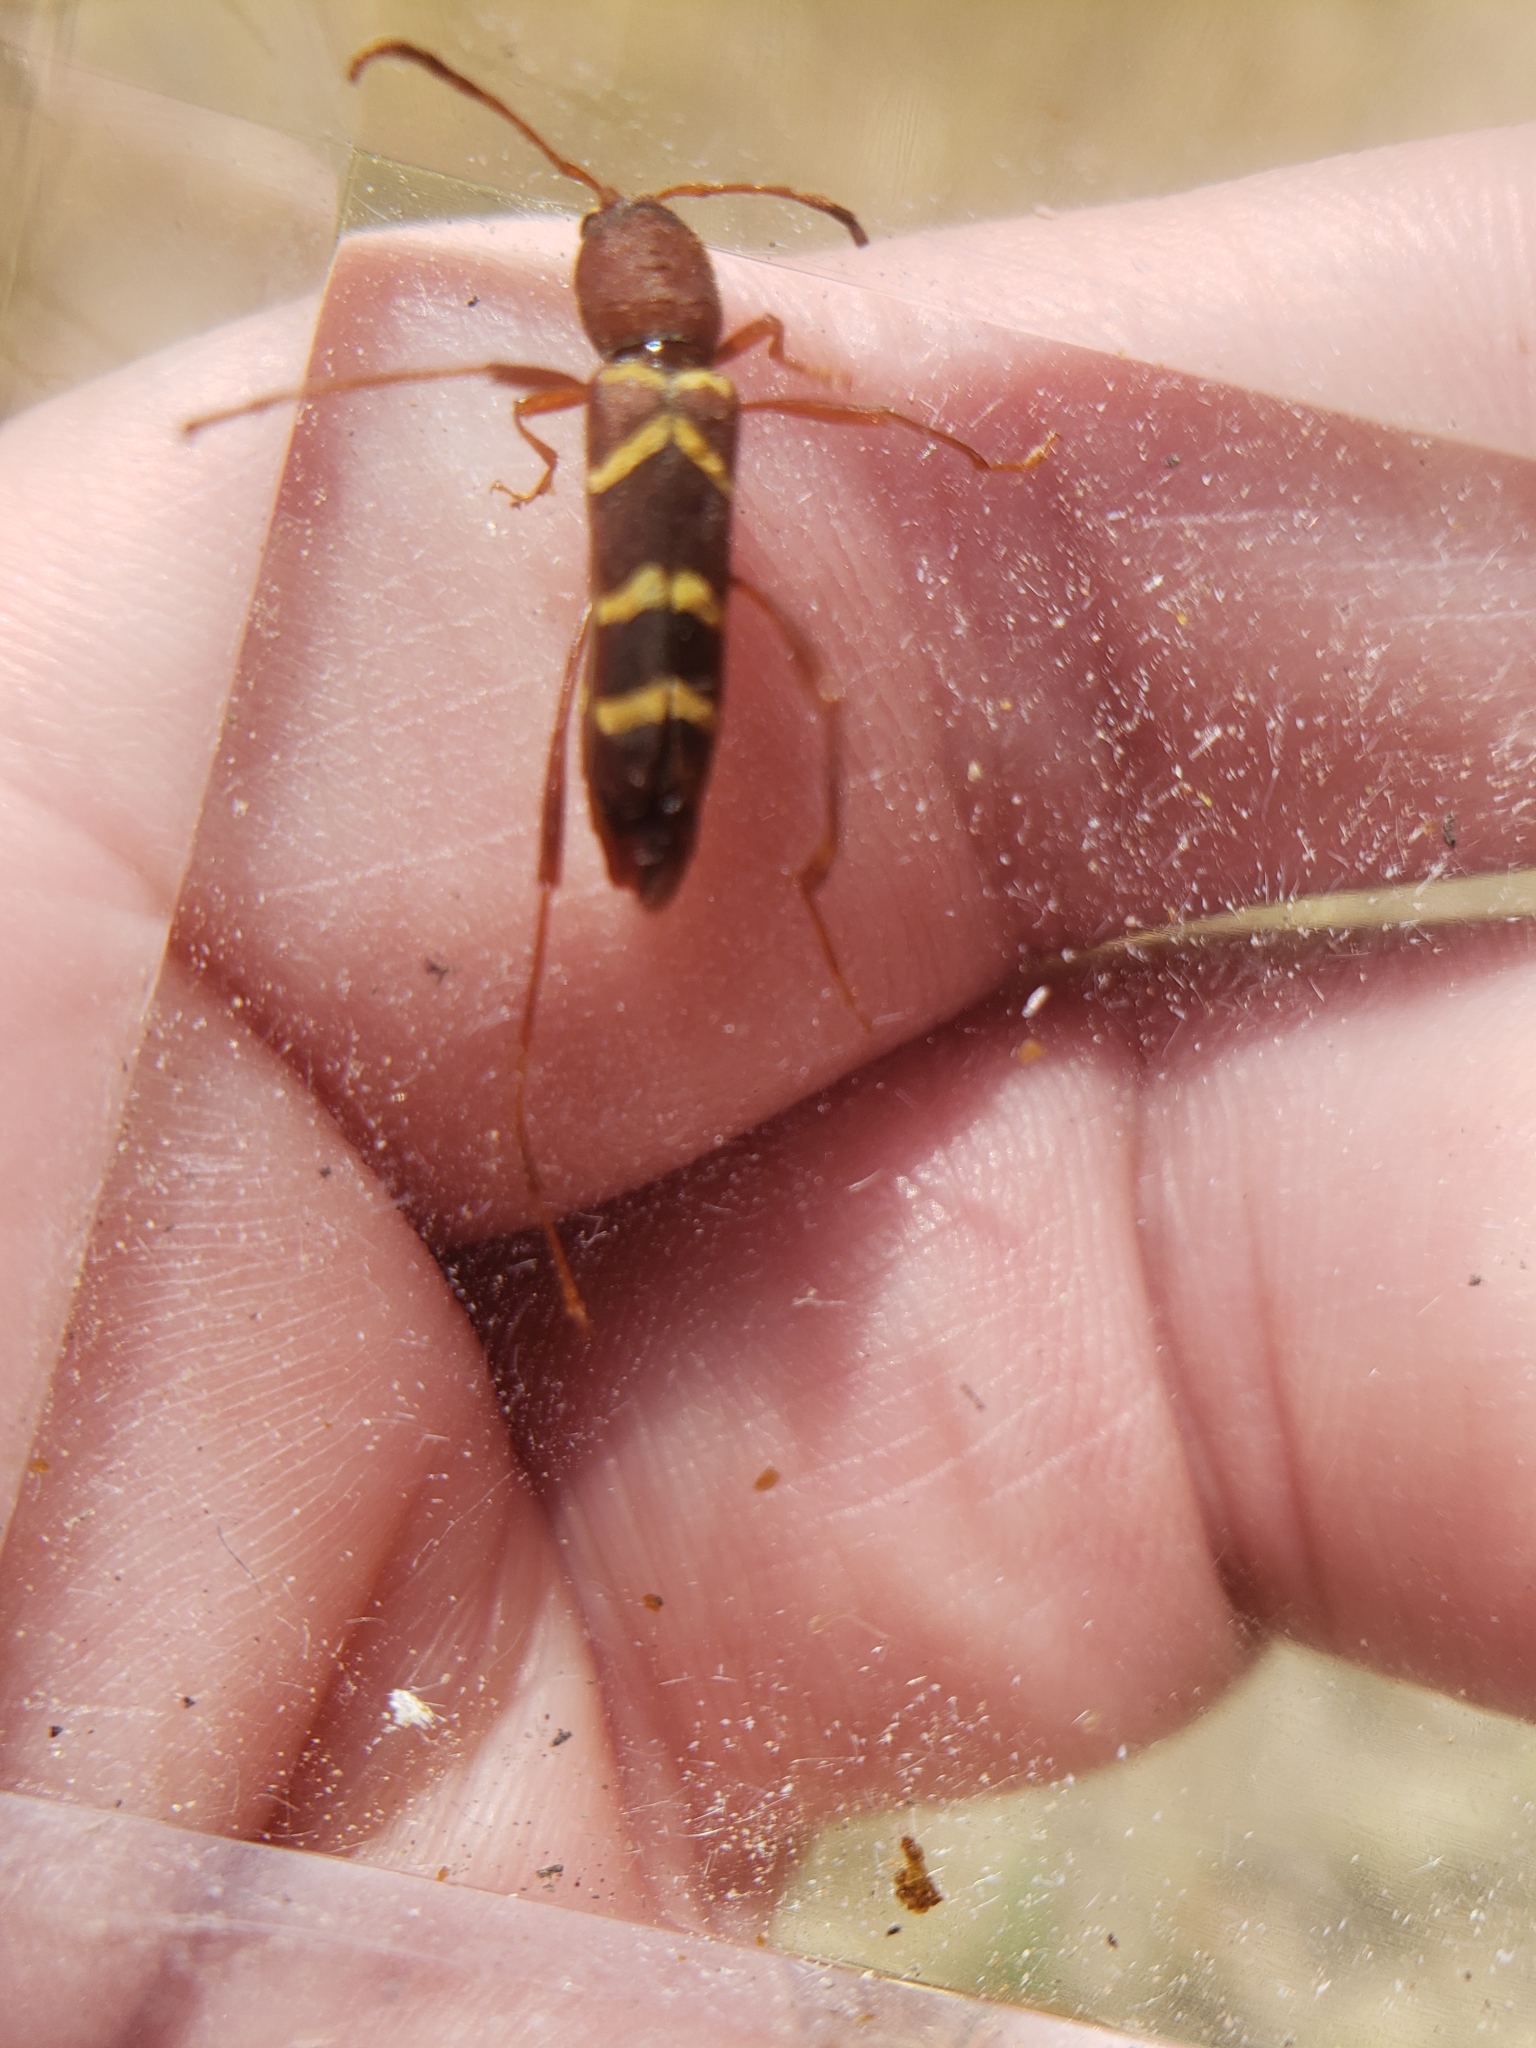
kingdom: Animalia
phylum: Arthropoda
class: Insecta
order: Coleoptera
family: Cerambycidae
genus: Neoclytus
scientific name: Neoclytus acuminatus
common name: Read-headed ash borer
